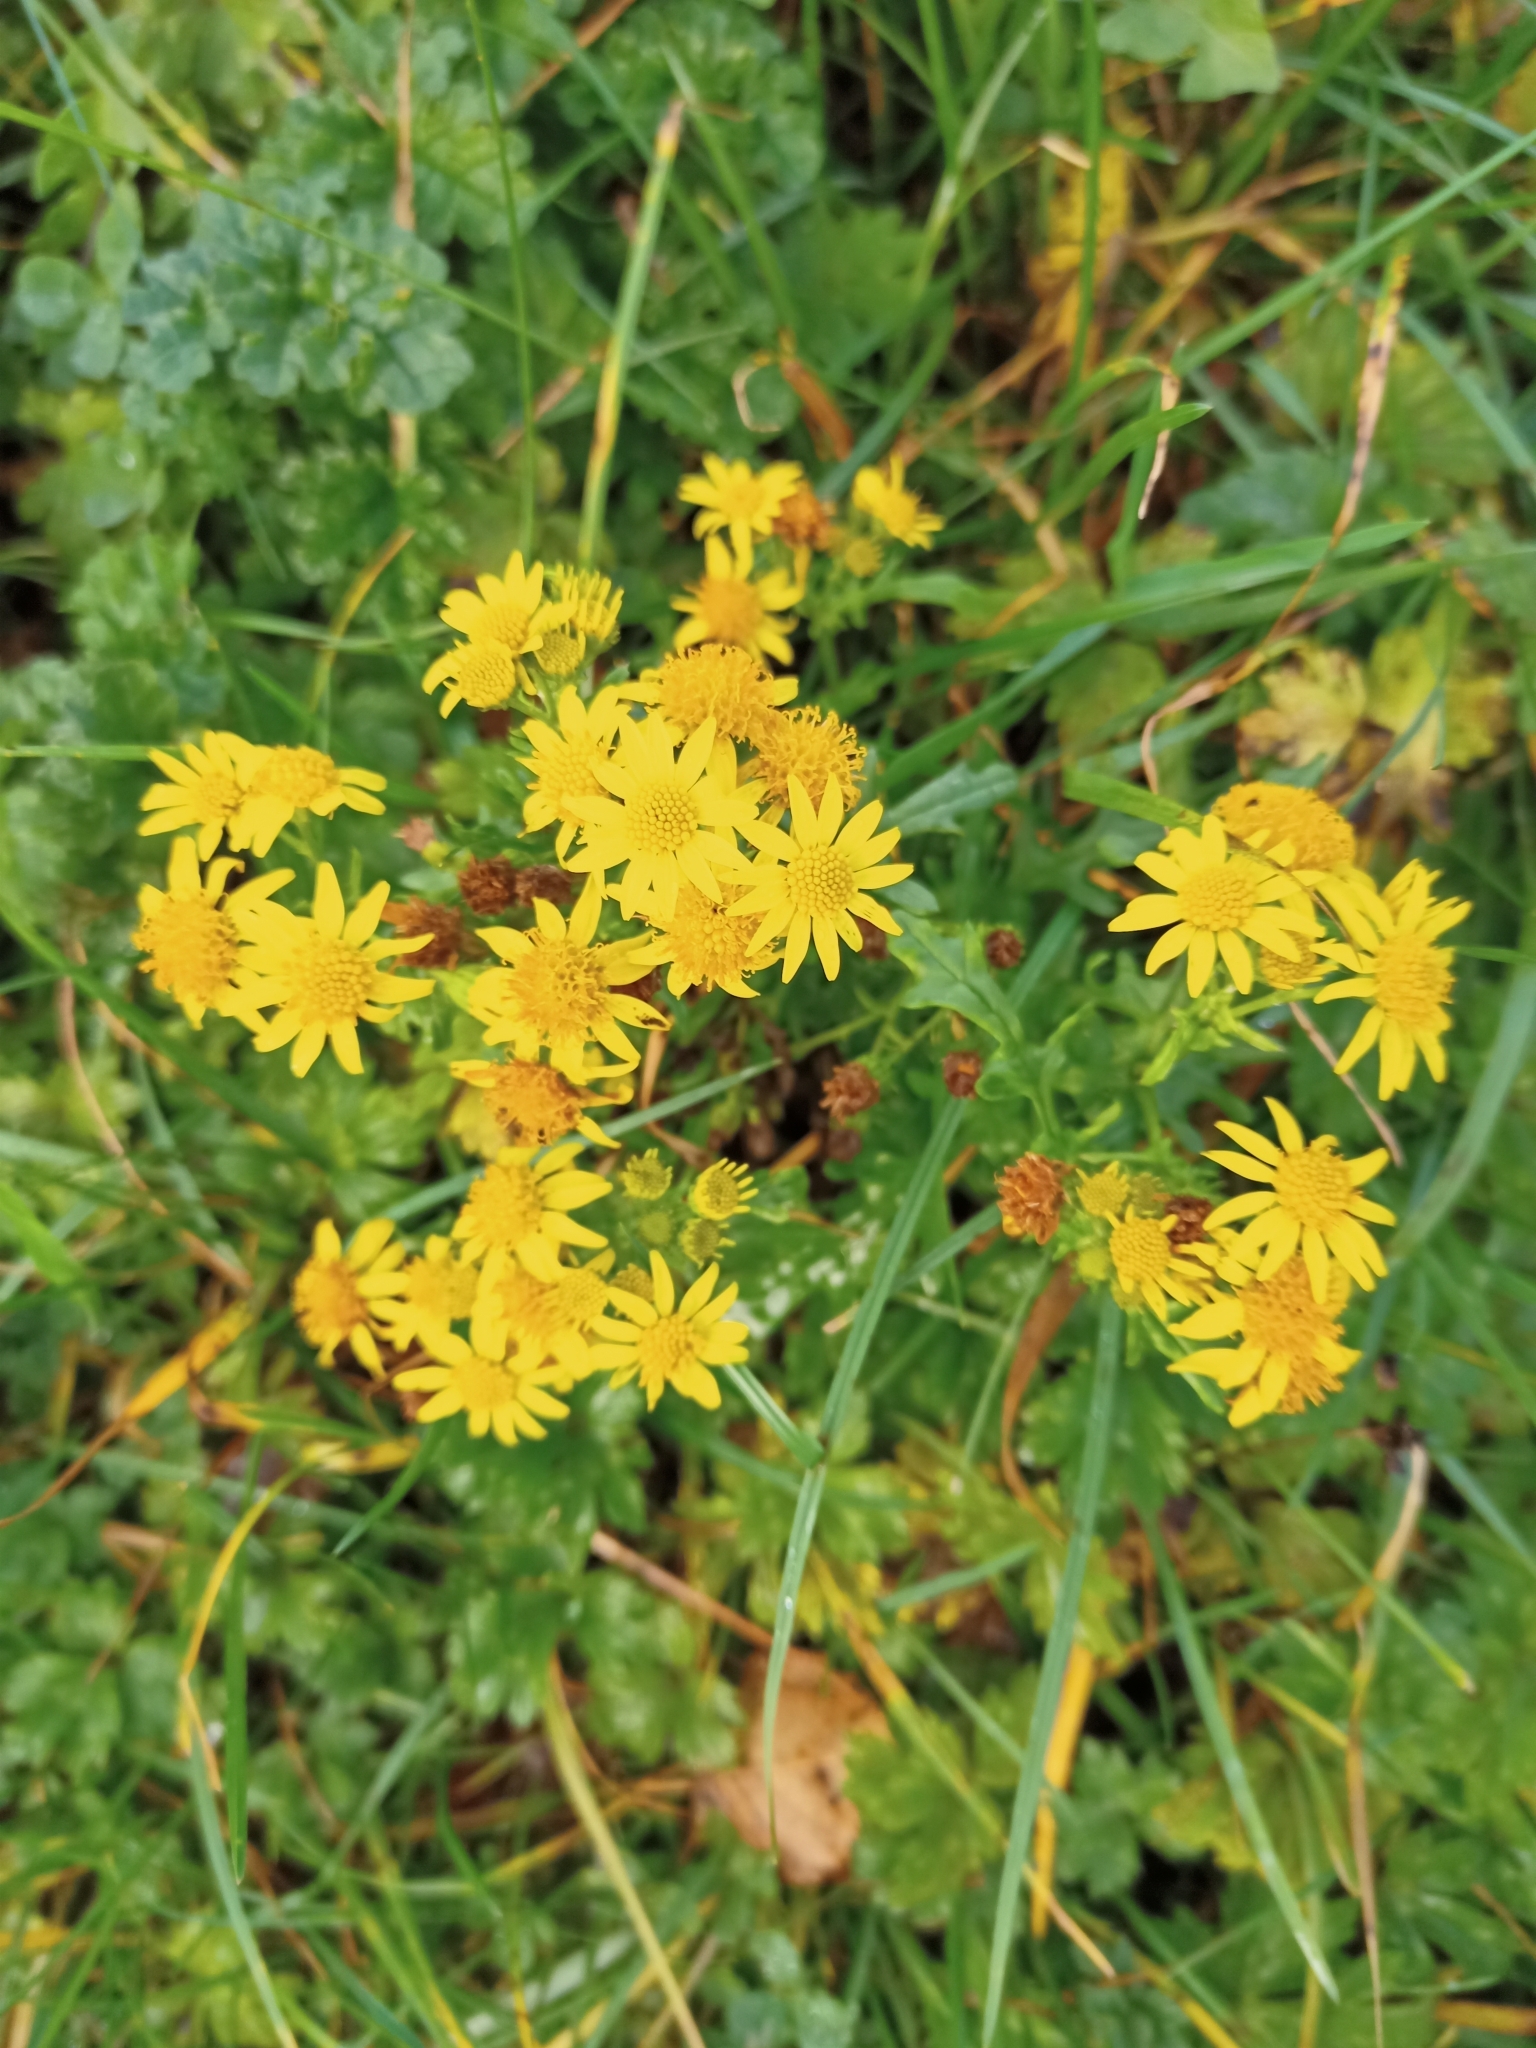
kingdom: Plantae
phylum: Tracheophyta
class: Magnoliopsida
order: Asterales
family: Asteraceae
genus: Jacobaea
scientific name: Jacobaea vulgaris
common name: Stinking willie
